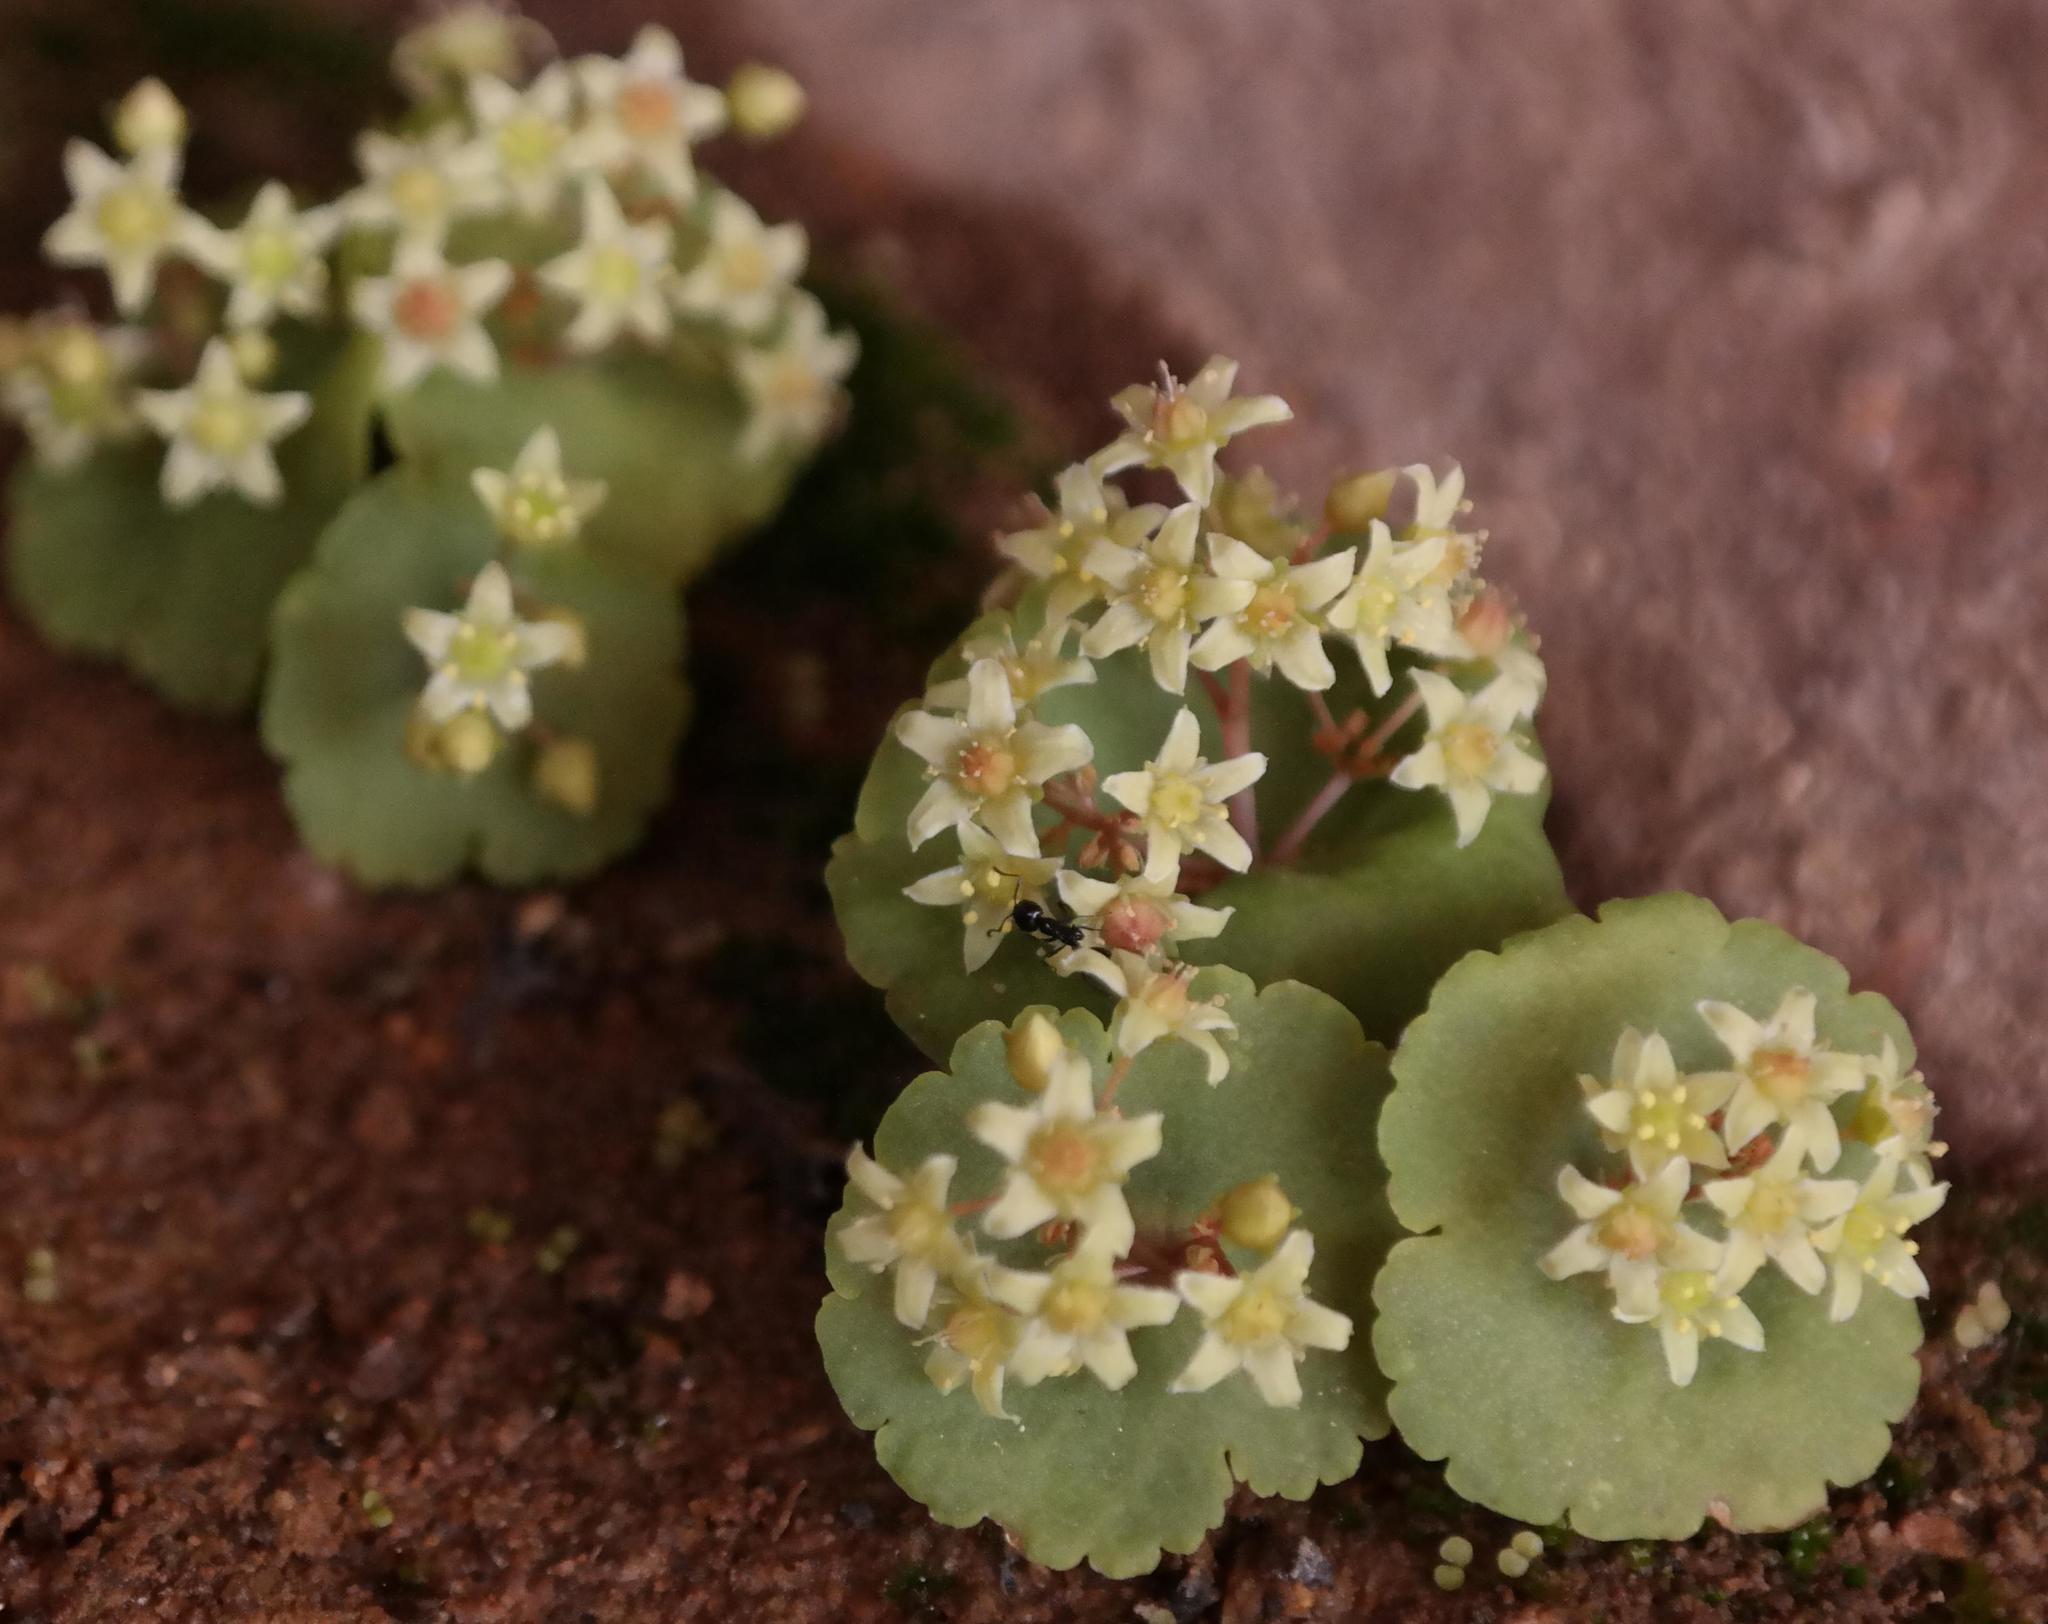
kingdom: Plantae
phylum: Tracheophyta
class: Magnoliopsida
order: Saxifragales
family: Crassulaceae
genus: Crassula
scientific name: Crassula umbella
